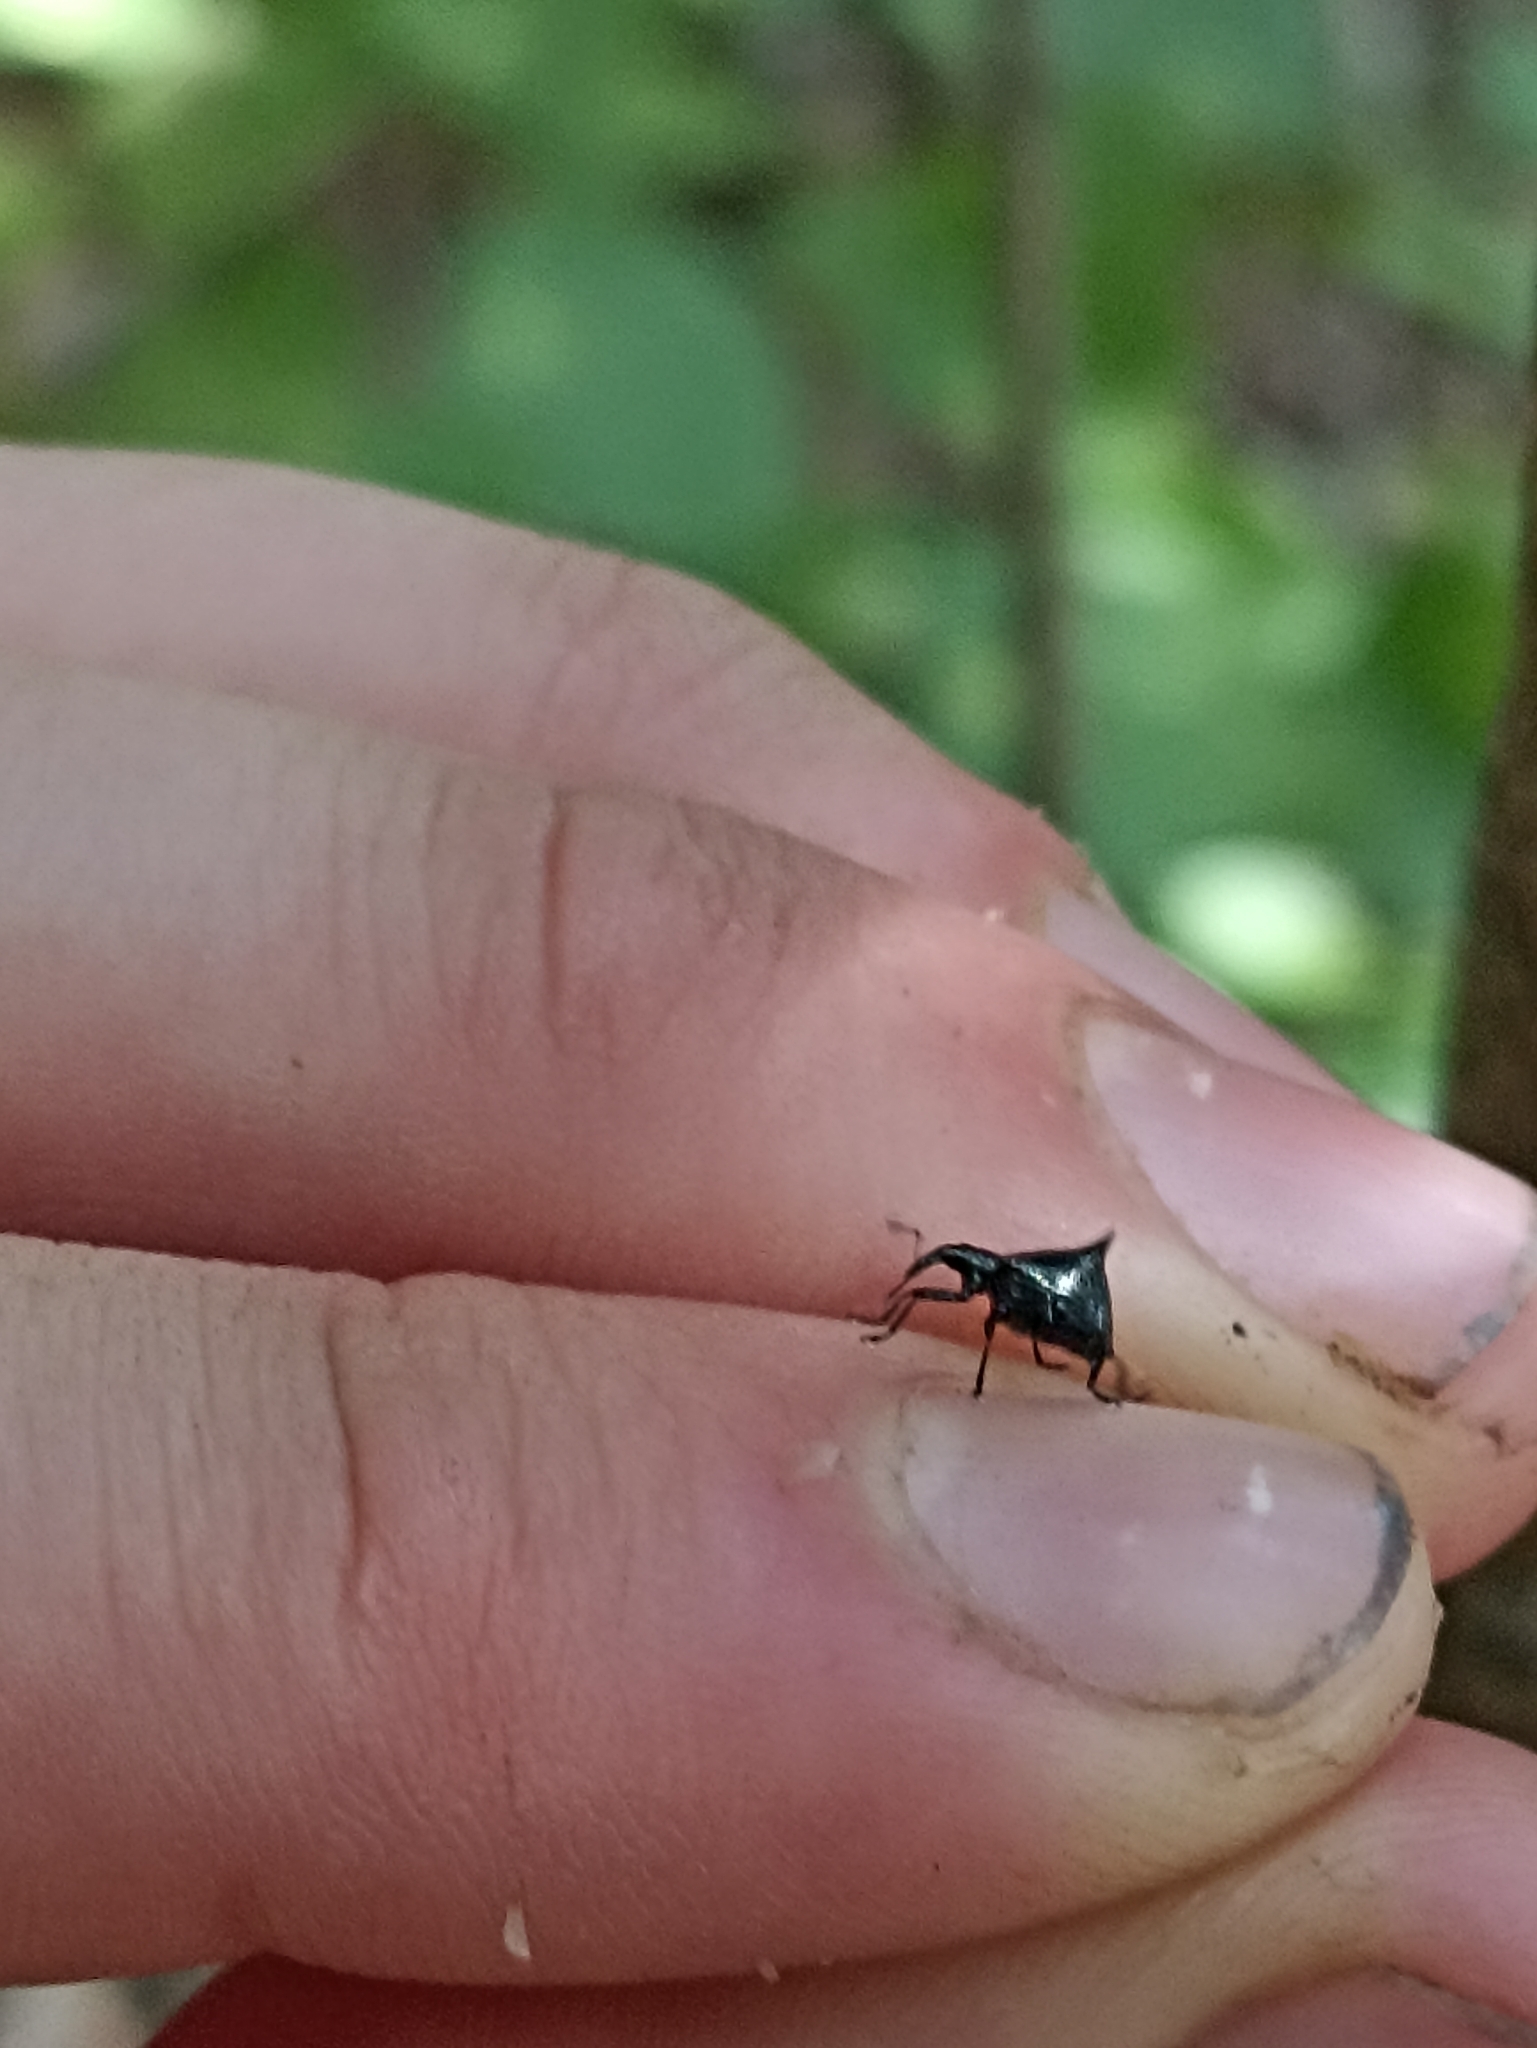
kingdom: Animalia
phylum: Arthropoda
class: Insecta
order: Coleoptera
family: Curculionidae
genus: Scolopterus
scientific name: Scolopterus penicillatus
